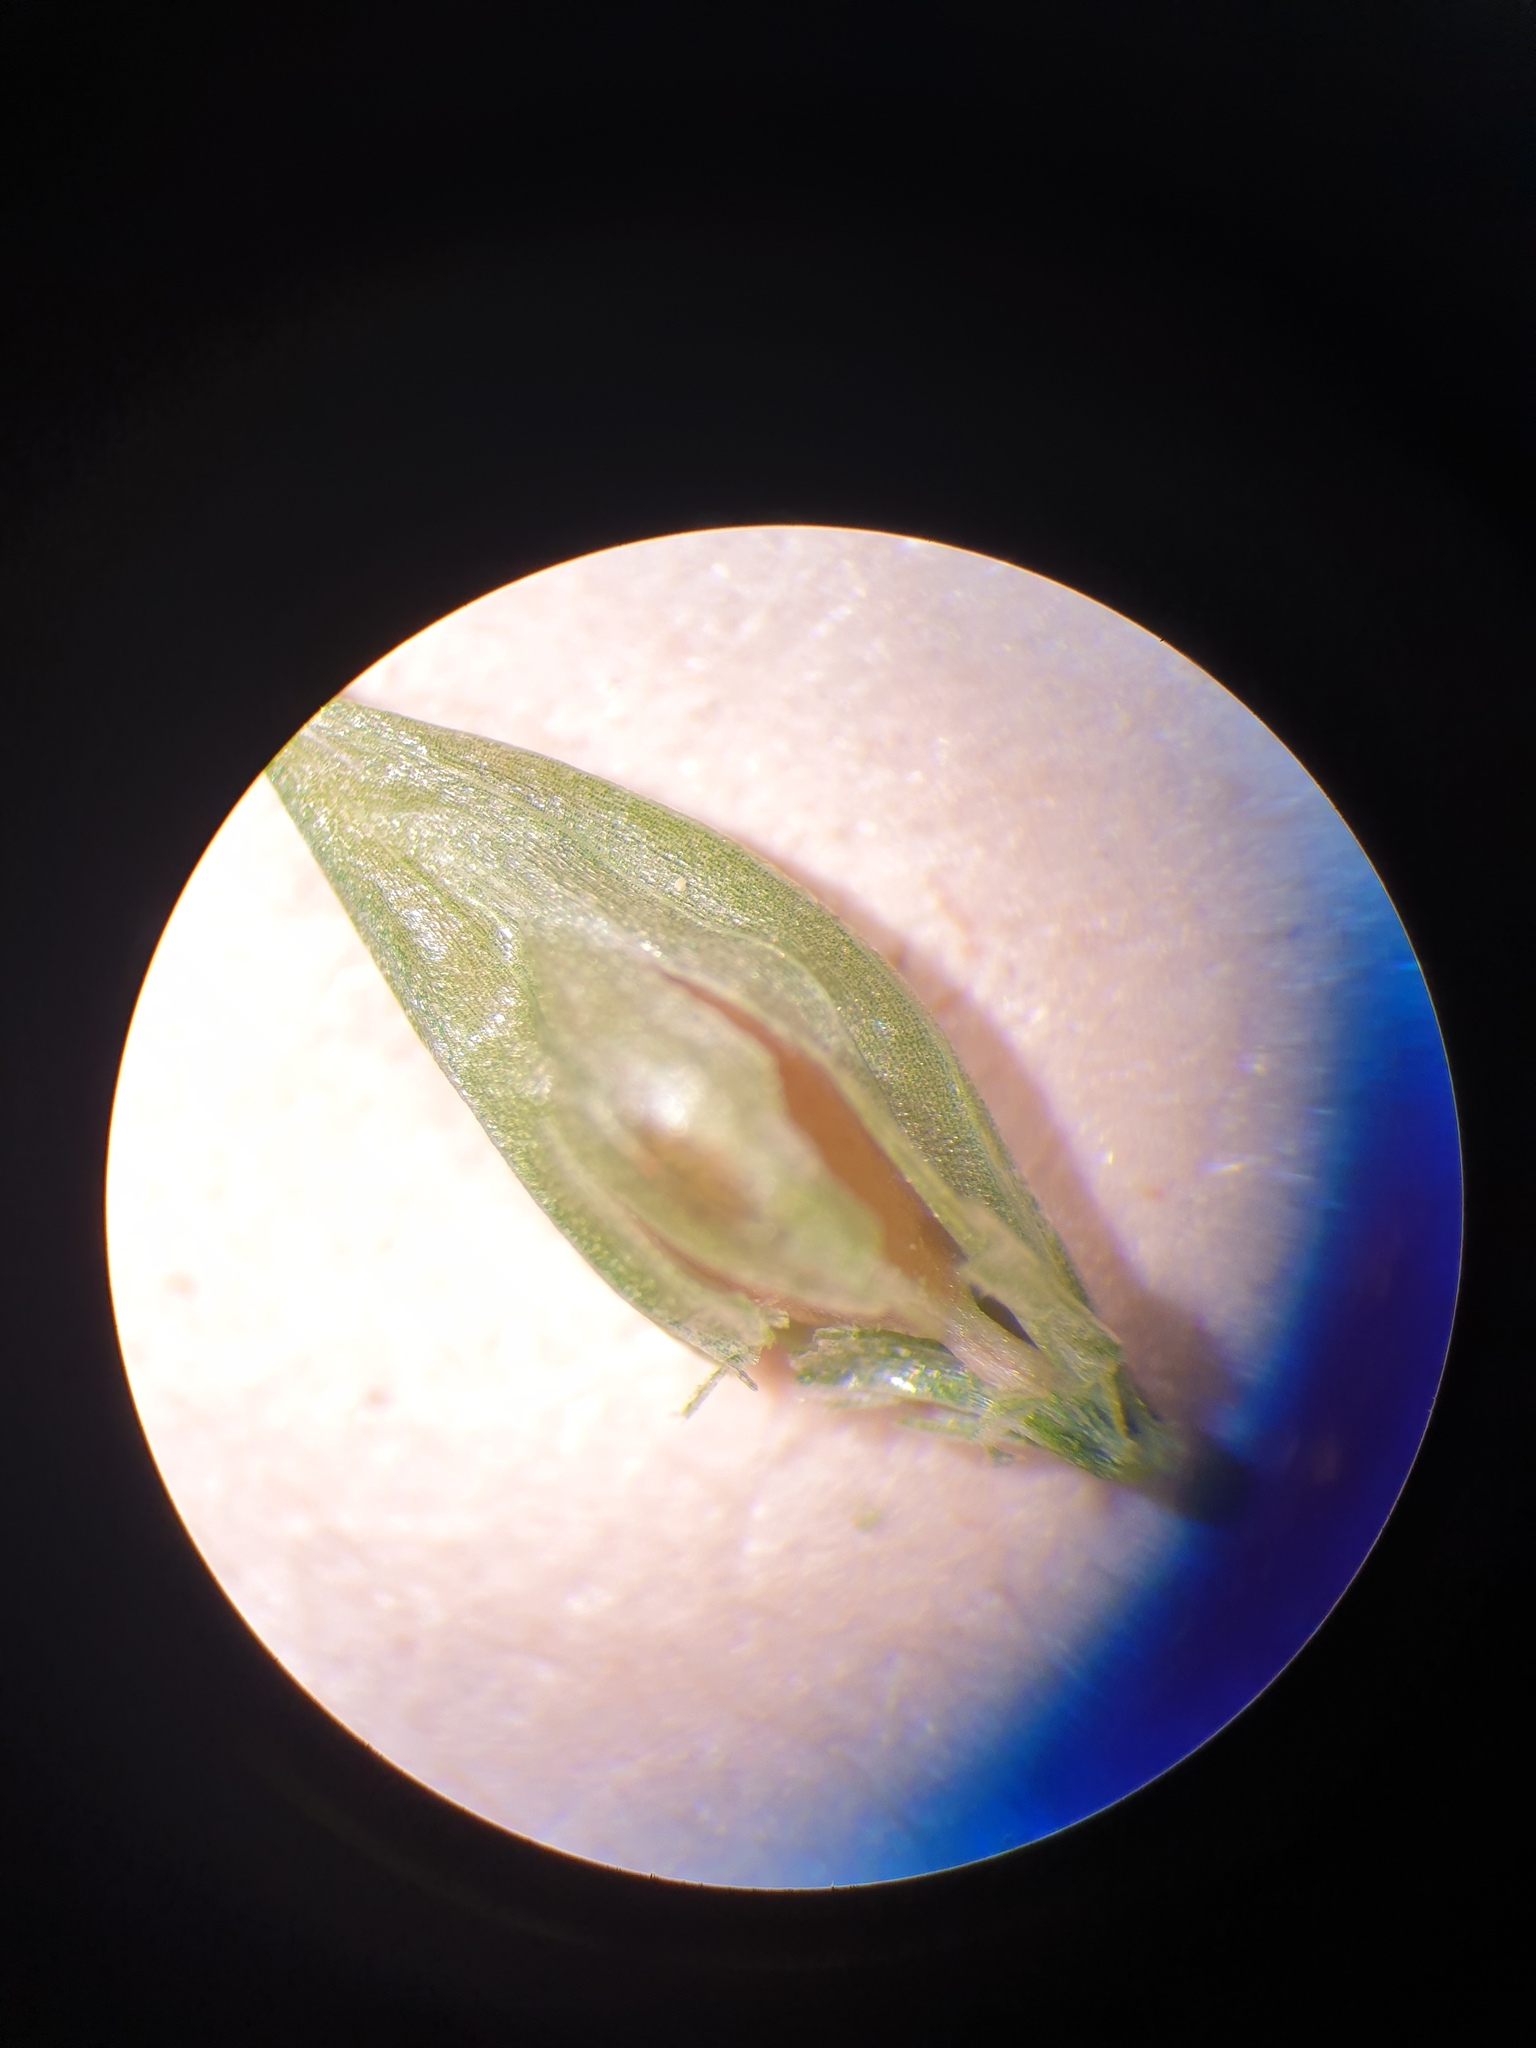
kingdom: Plantae
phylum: Tracheophyta
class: Liliopsida
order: Poales
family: Cyperaceae
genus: Carex
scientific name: Carex debilis
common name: White-edge sedge
